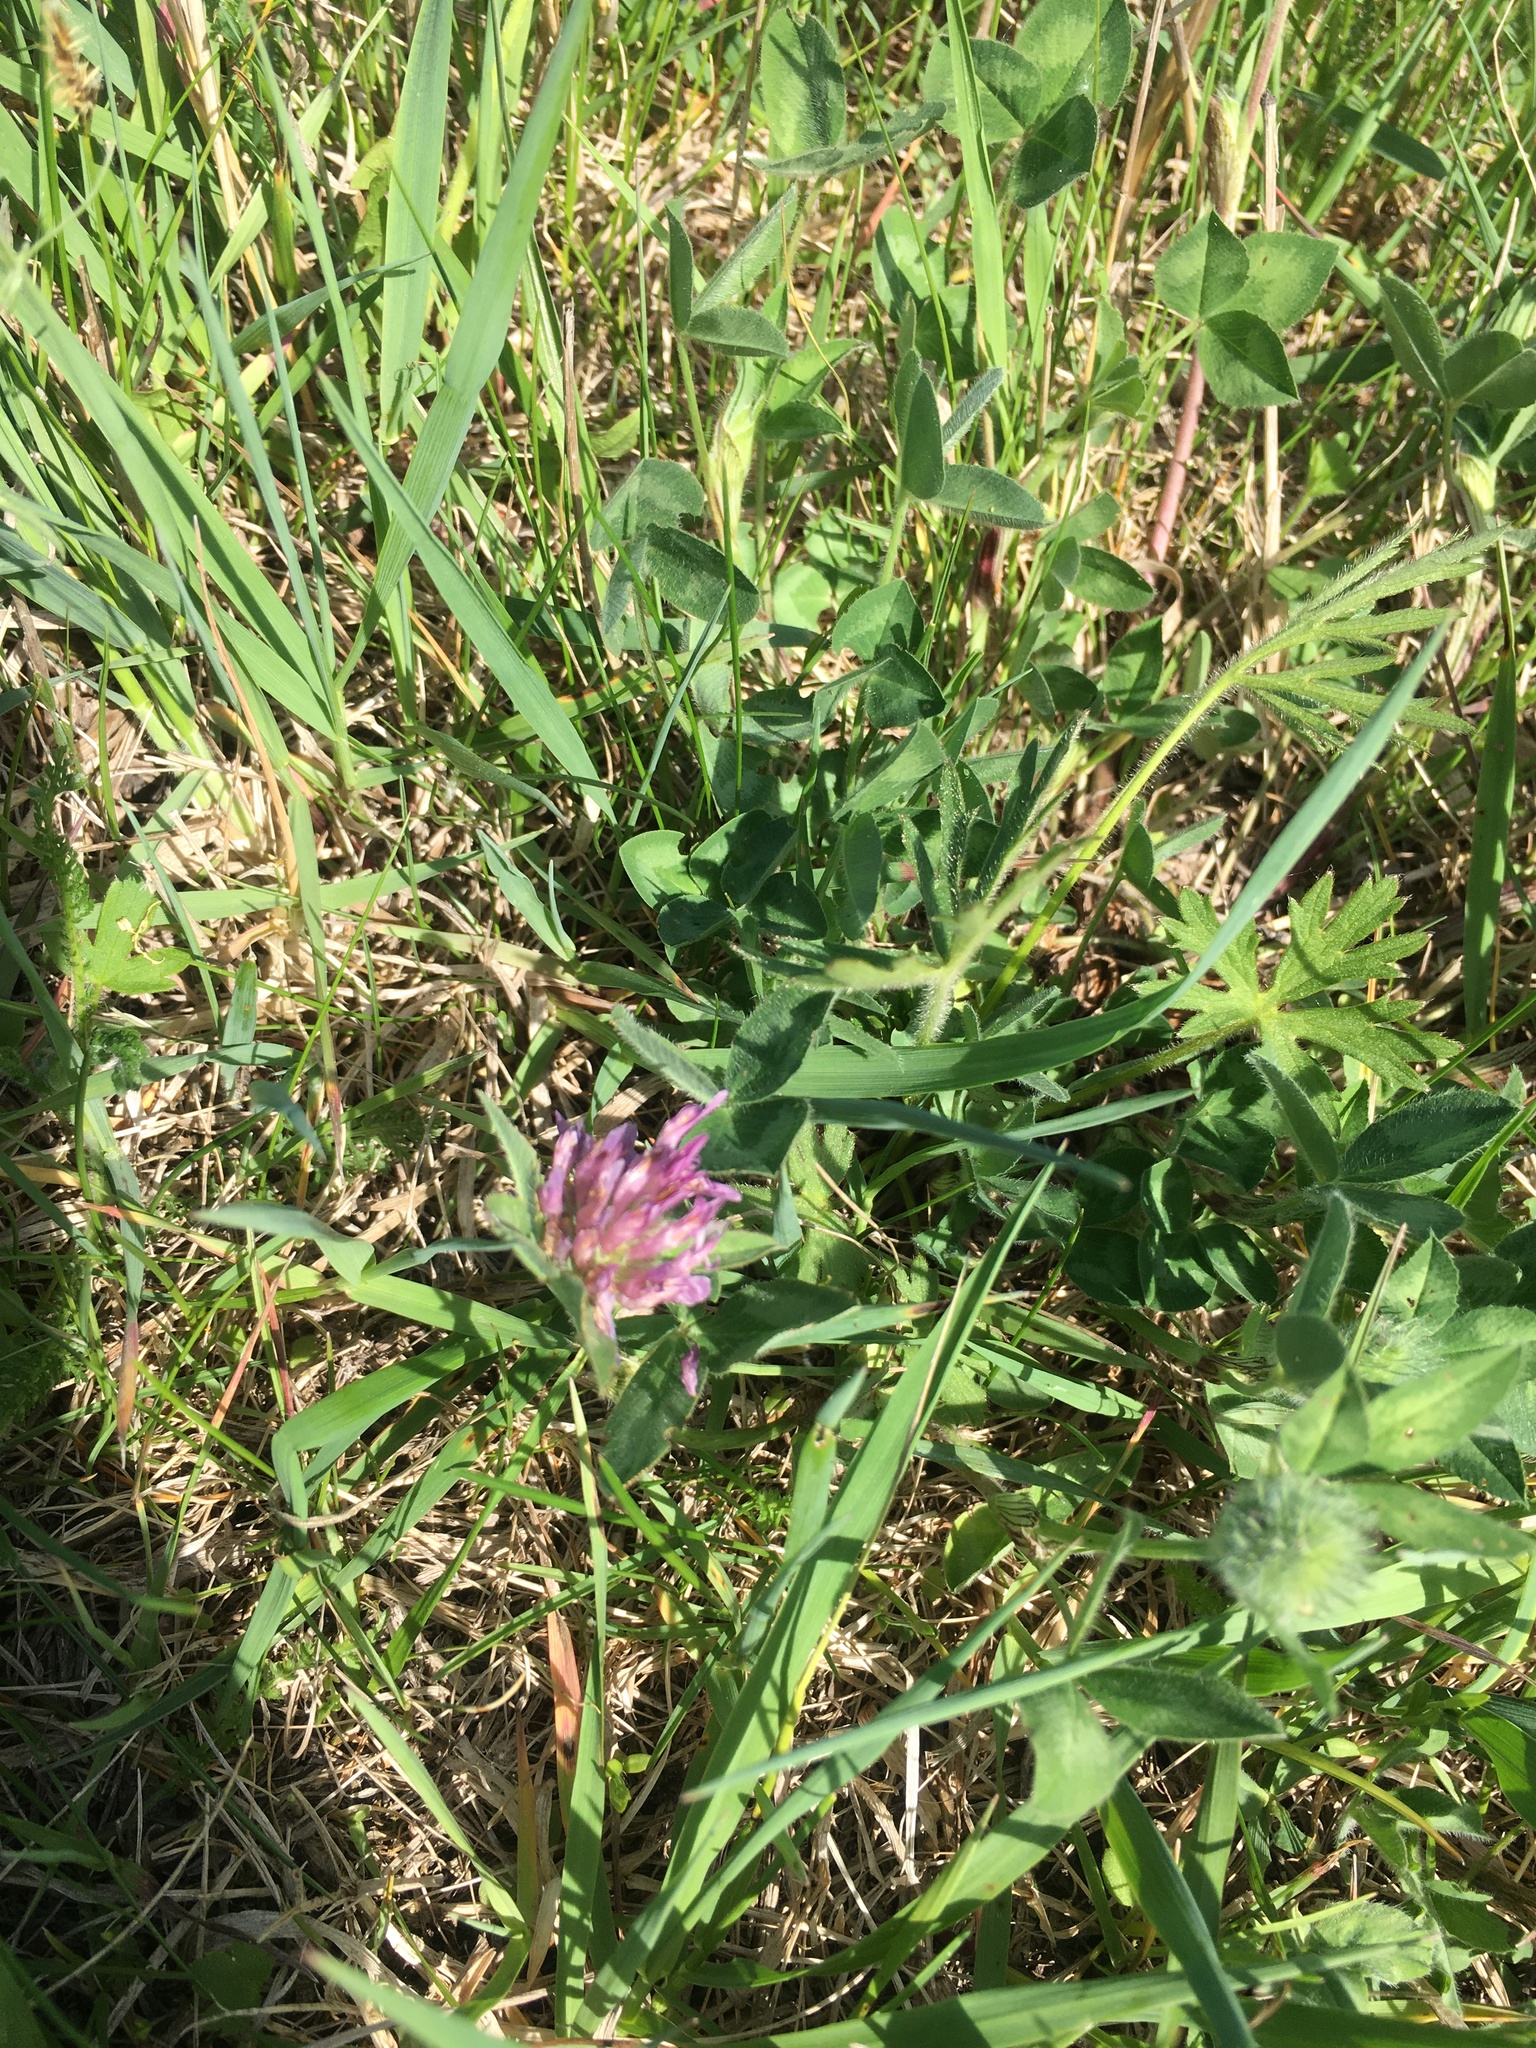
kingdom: Plantae
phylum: Tracheophyta
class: Magnoliopsida
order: Fabales
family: Fabaceae
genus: Trifolium
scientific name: Trifolium pratense
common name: Red clover
